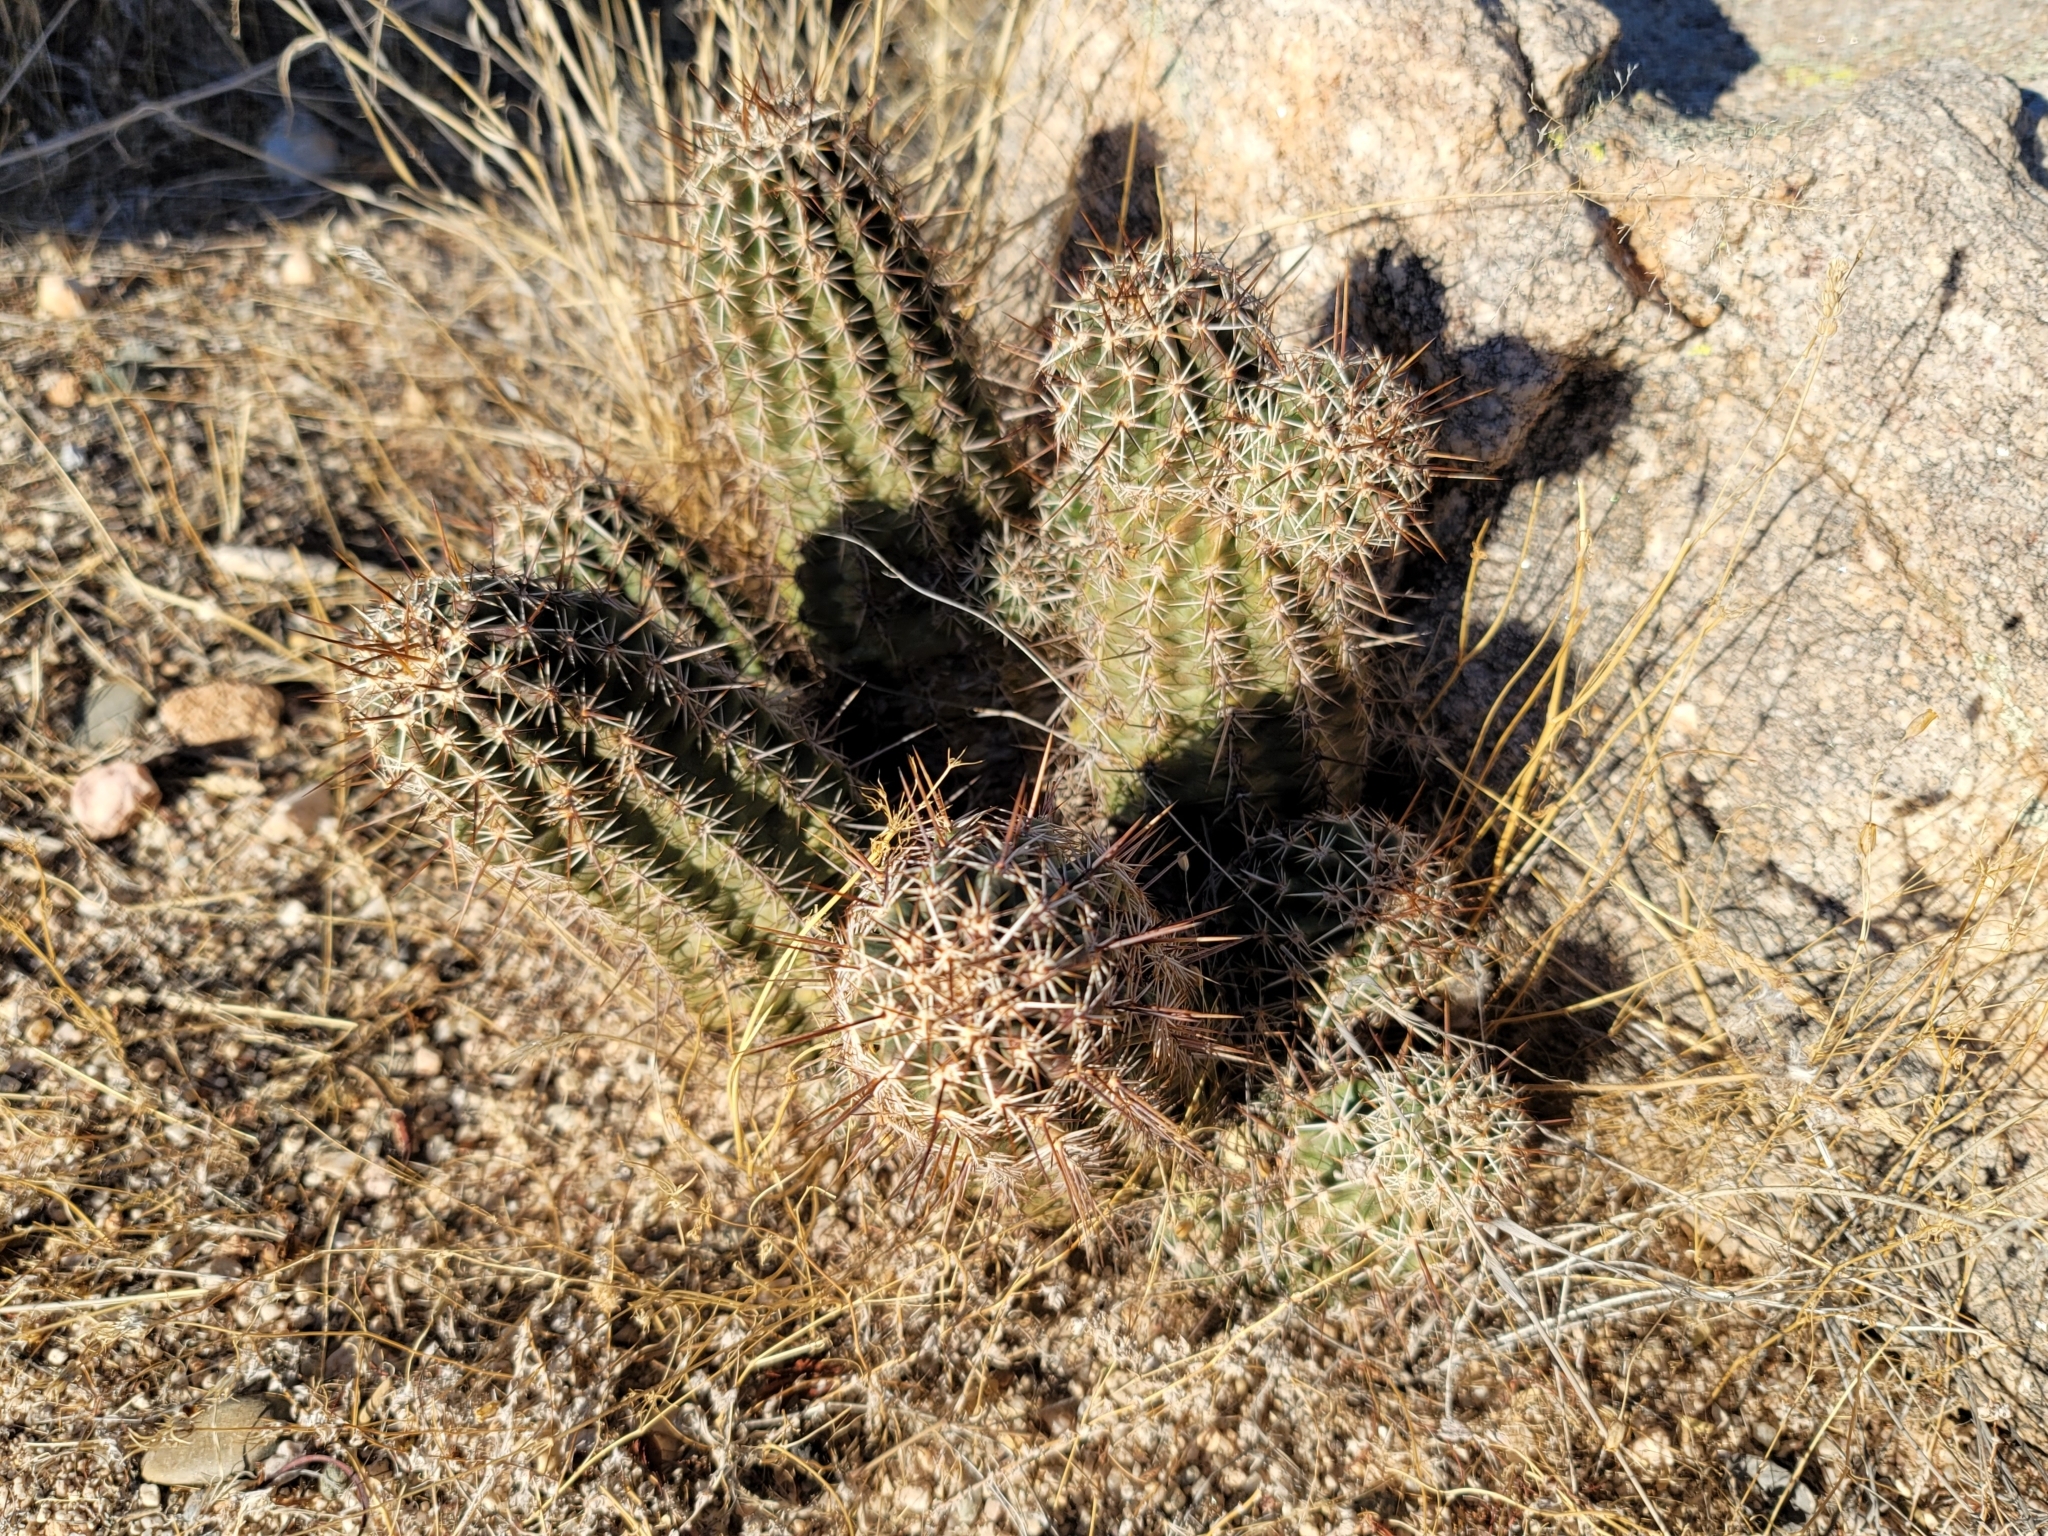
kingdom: Plantae
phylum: Tracheophyta
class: Magnoliopsida
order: Caryophyllales
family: Cactaceae
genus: Echinocereus
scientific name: Echinocereus fasciculatus
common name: Bundle hedgehog
